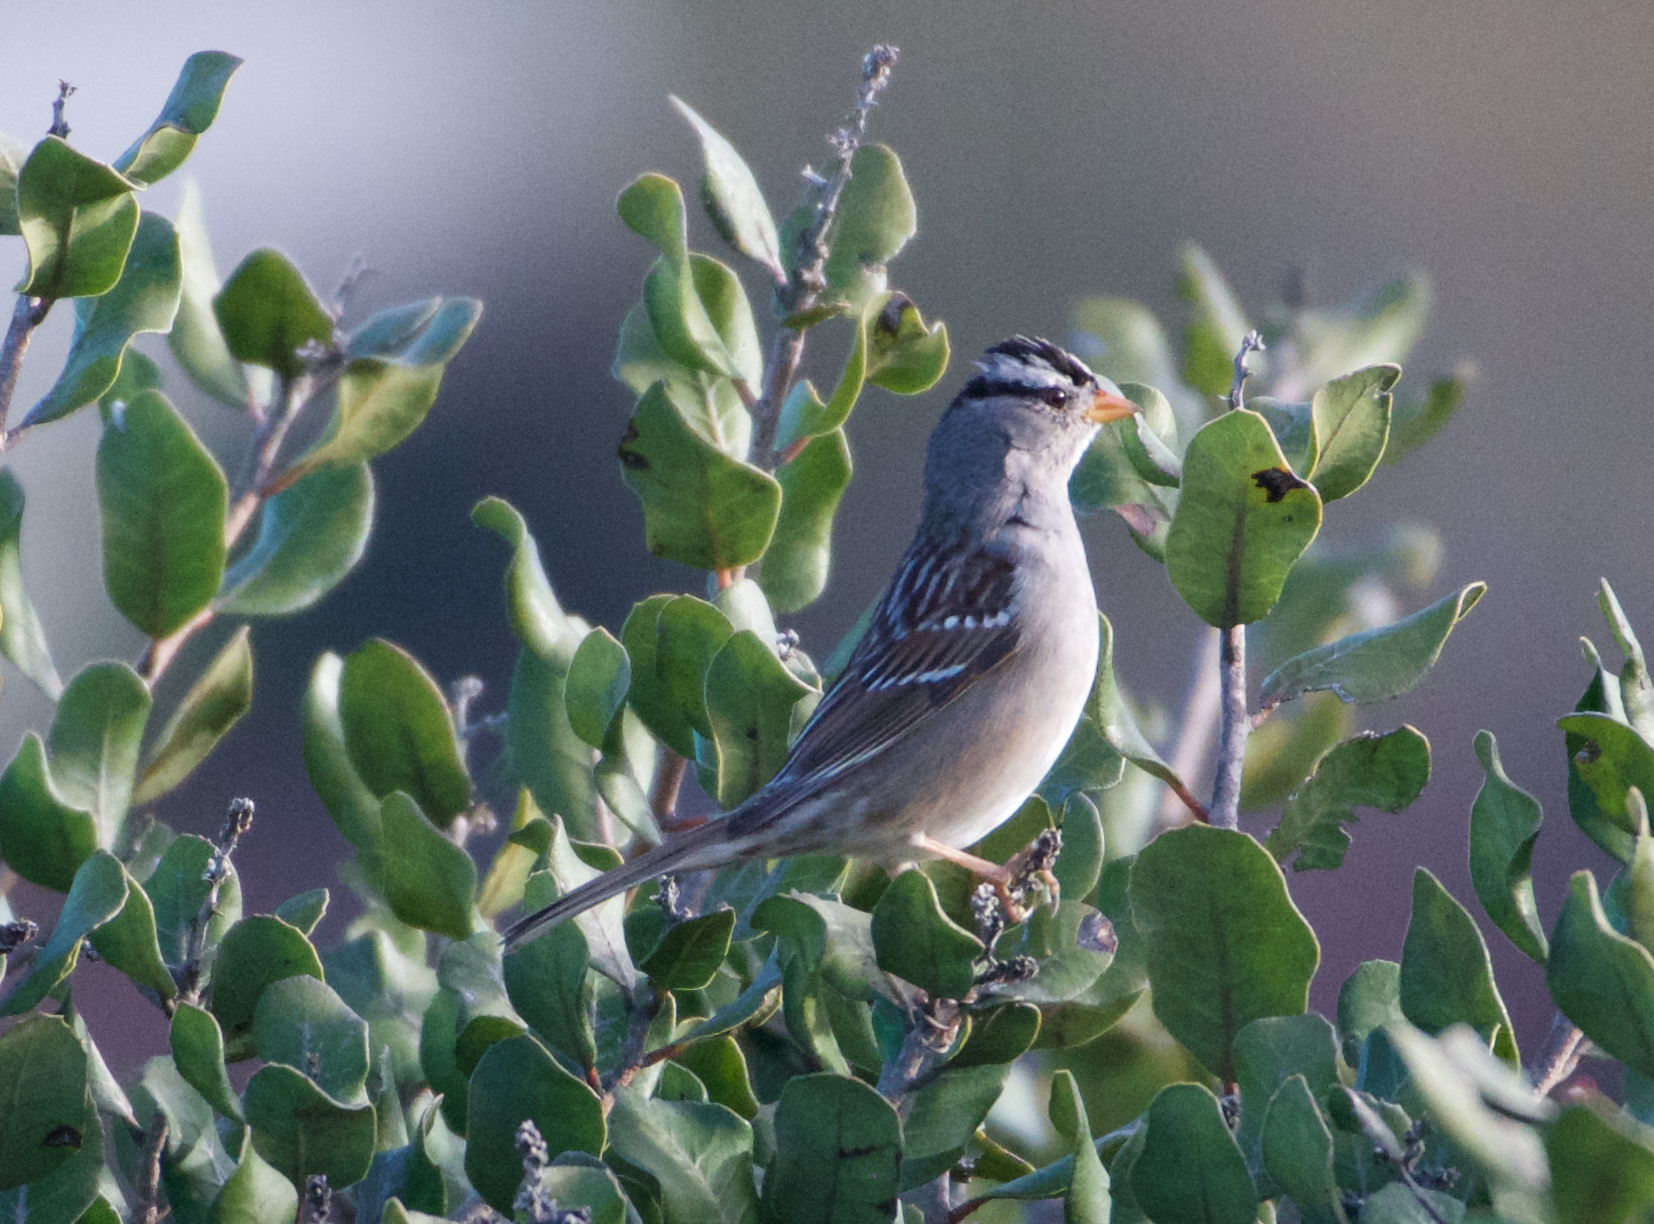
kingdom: Animalia
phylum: Chordata
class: Aves
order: Passeriformes
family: Passerellidae
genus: Zonotrichia
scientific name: Zonotrichia leucophrys
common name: White-crowned sparrow
